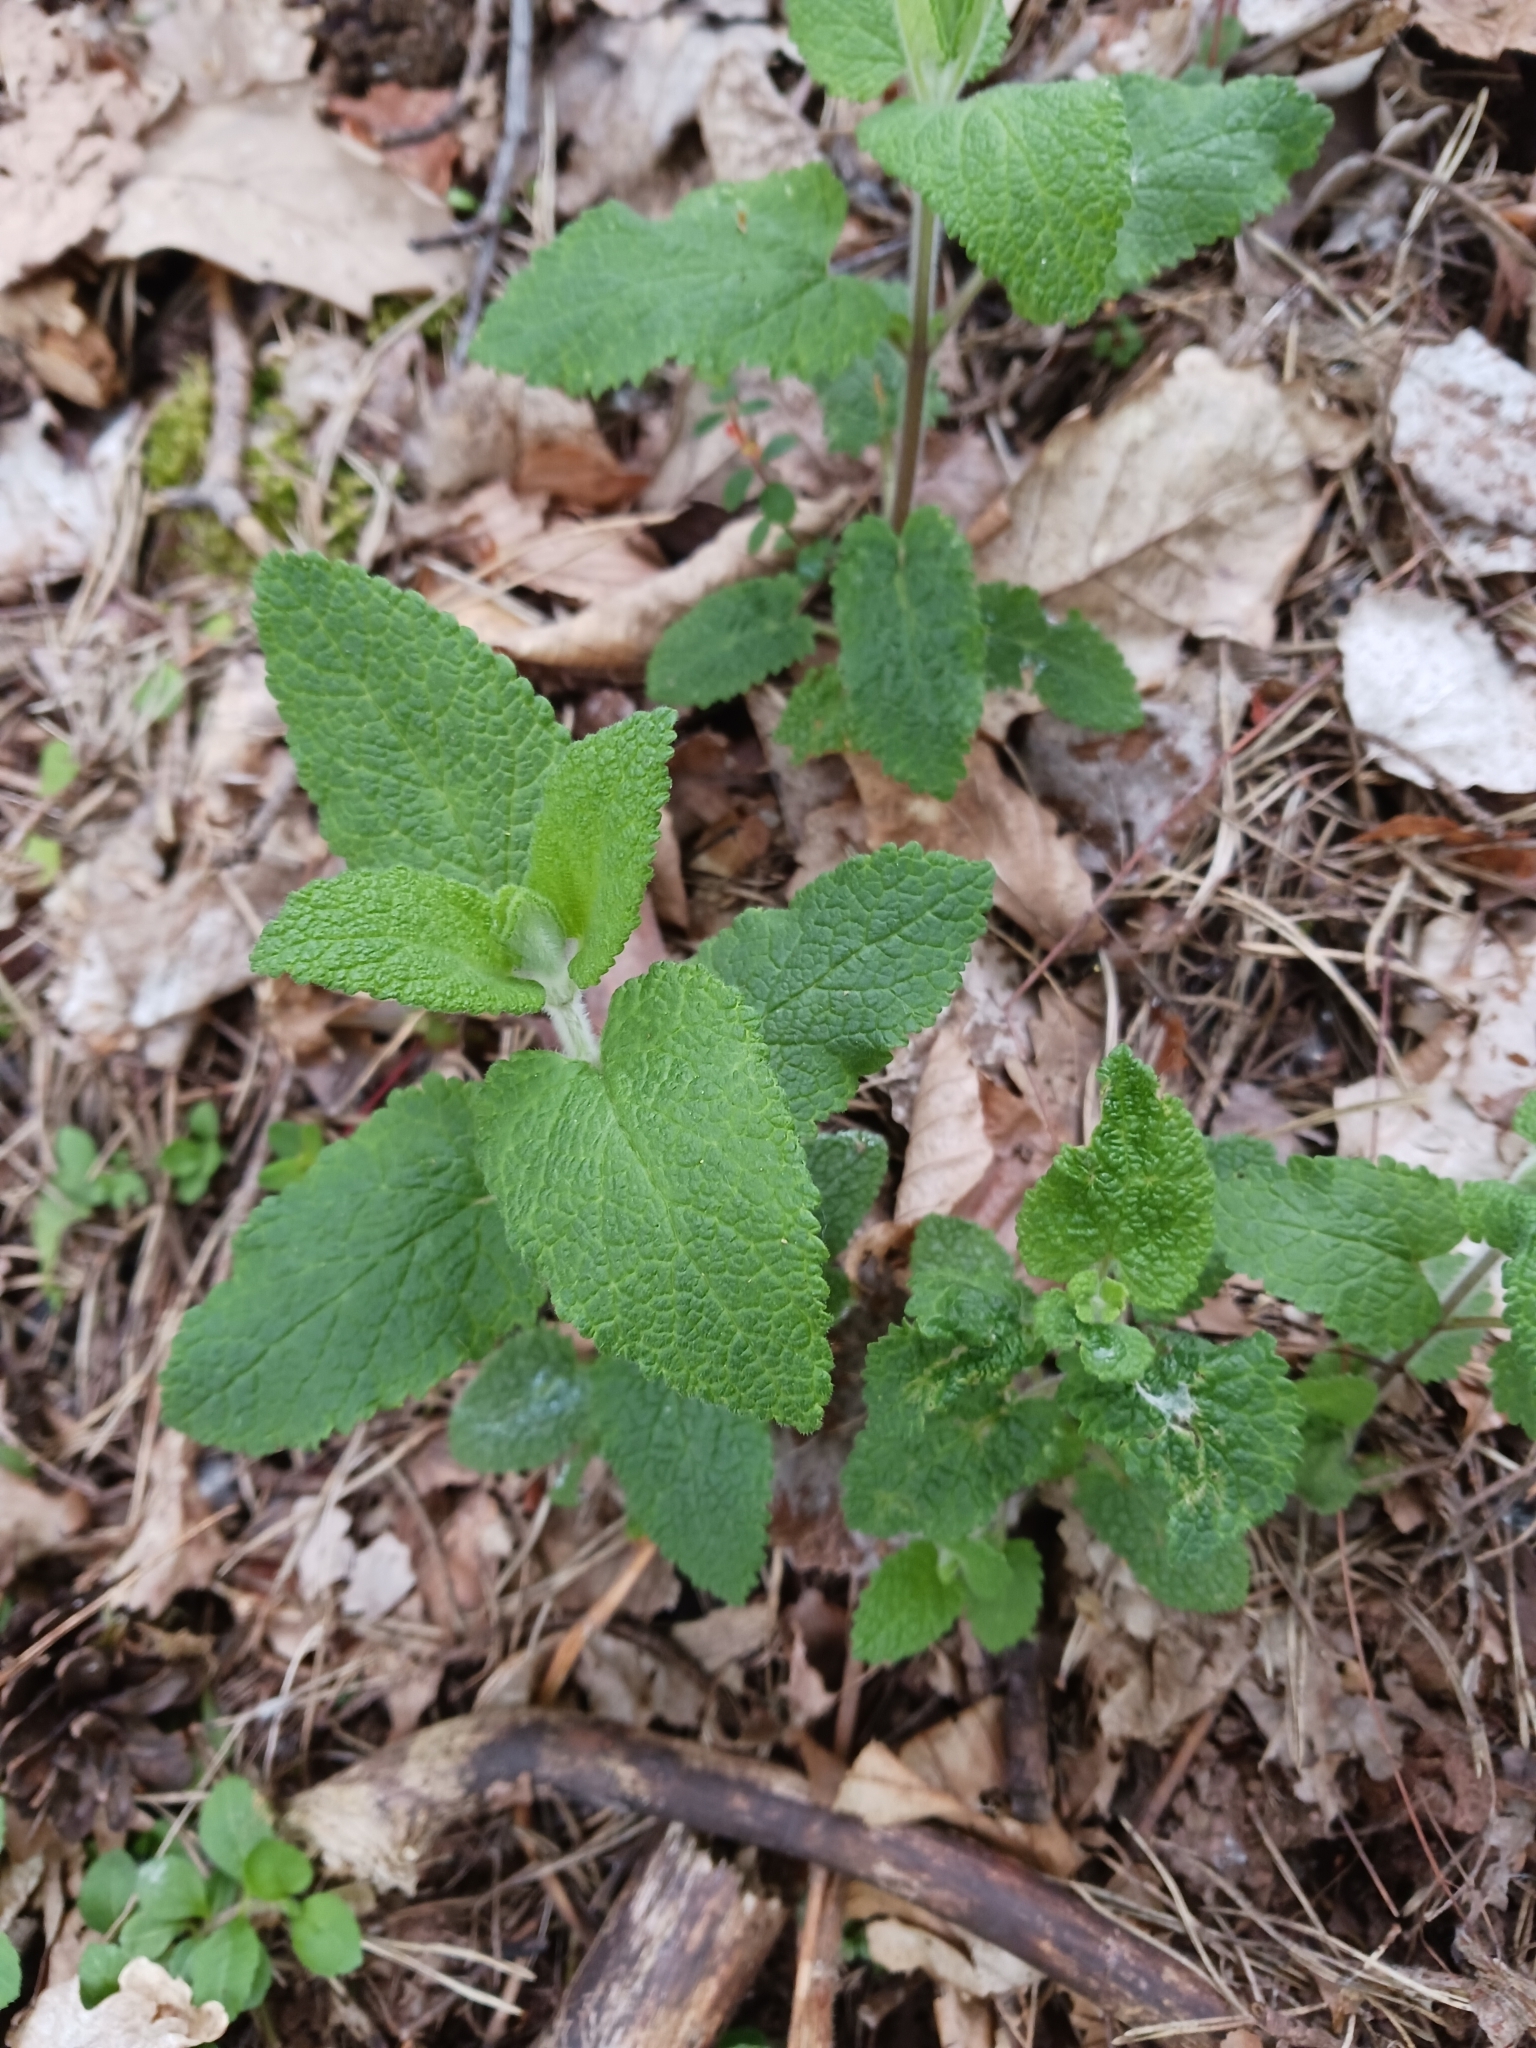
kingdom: Plantae
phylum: Tracheophyta
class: Magnoliopsida
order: Lamiales
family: Lamiaceae
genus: Teucrium
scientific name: Teucrium scorodonia
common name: Woodland germander
